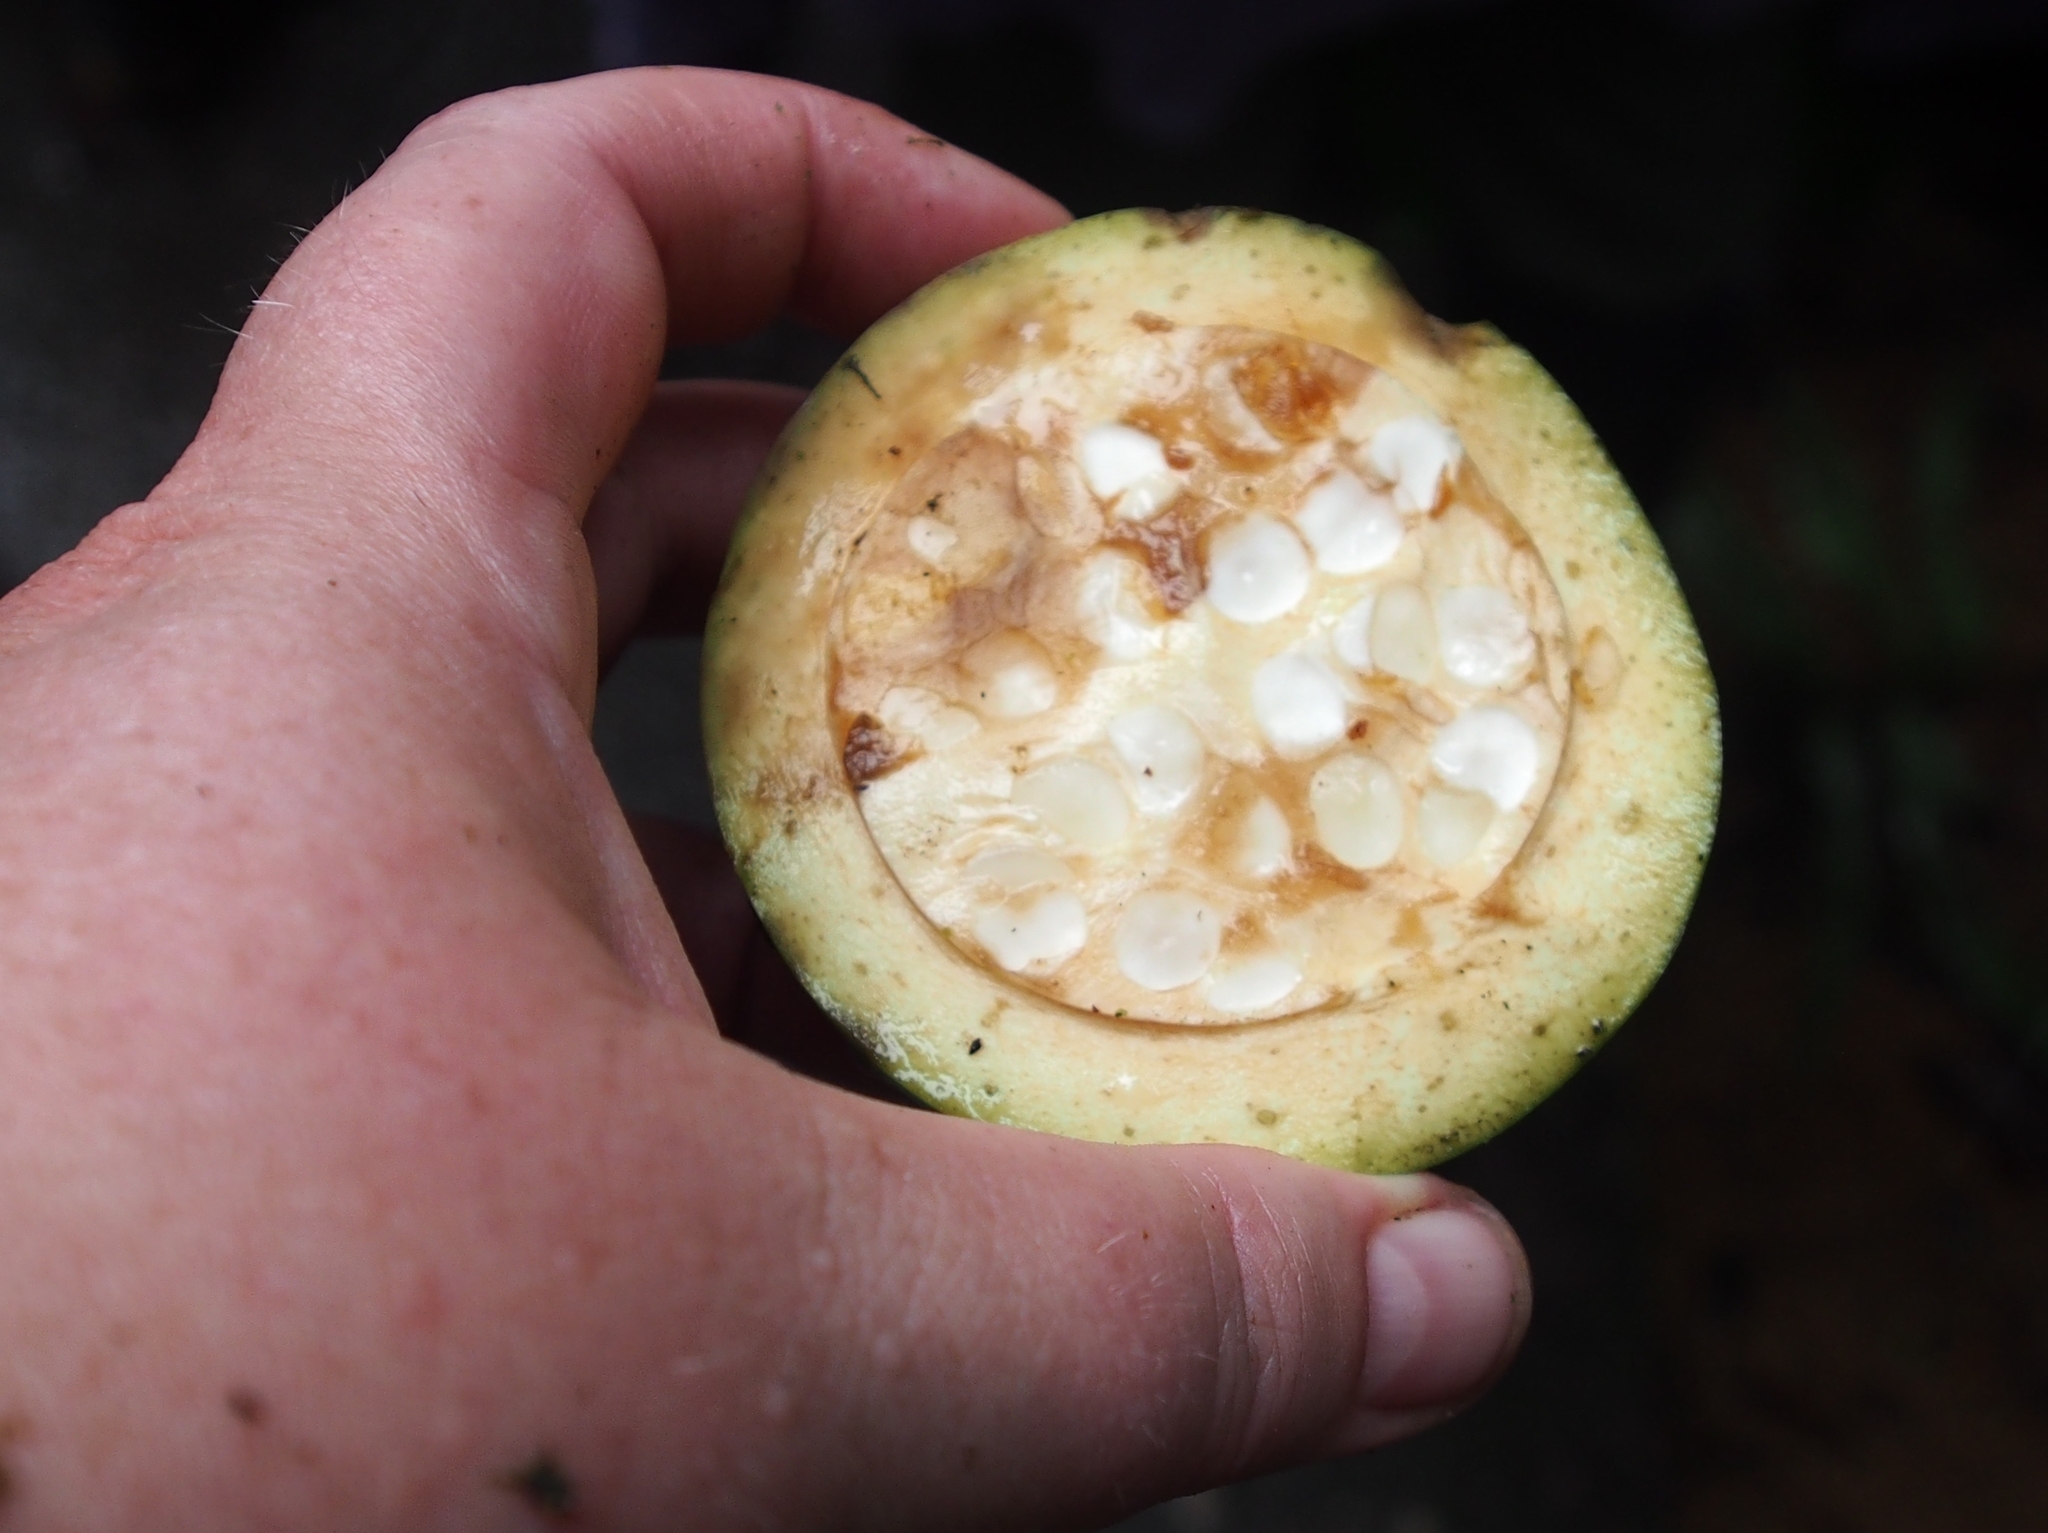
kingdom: Plantae
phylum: Tracheophyta
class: Magnoliopsida
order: Gentianales
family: Rubiaceae
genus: Randia
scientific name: Randia genipoides
